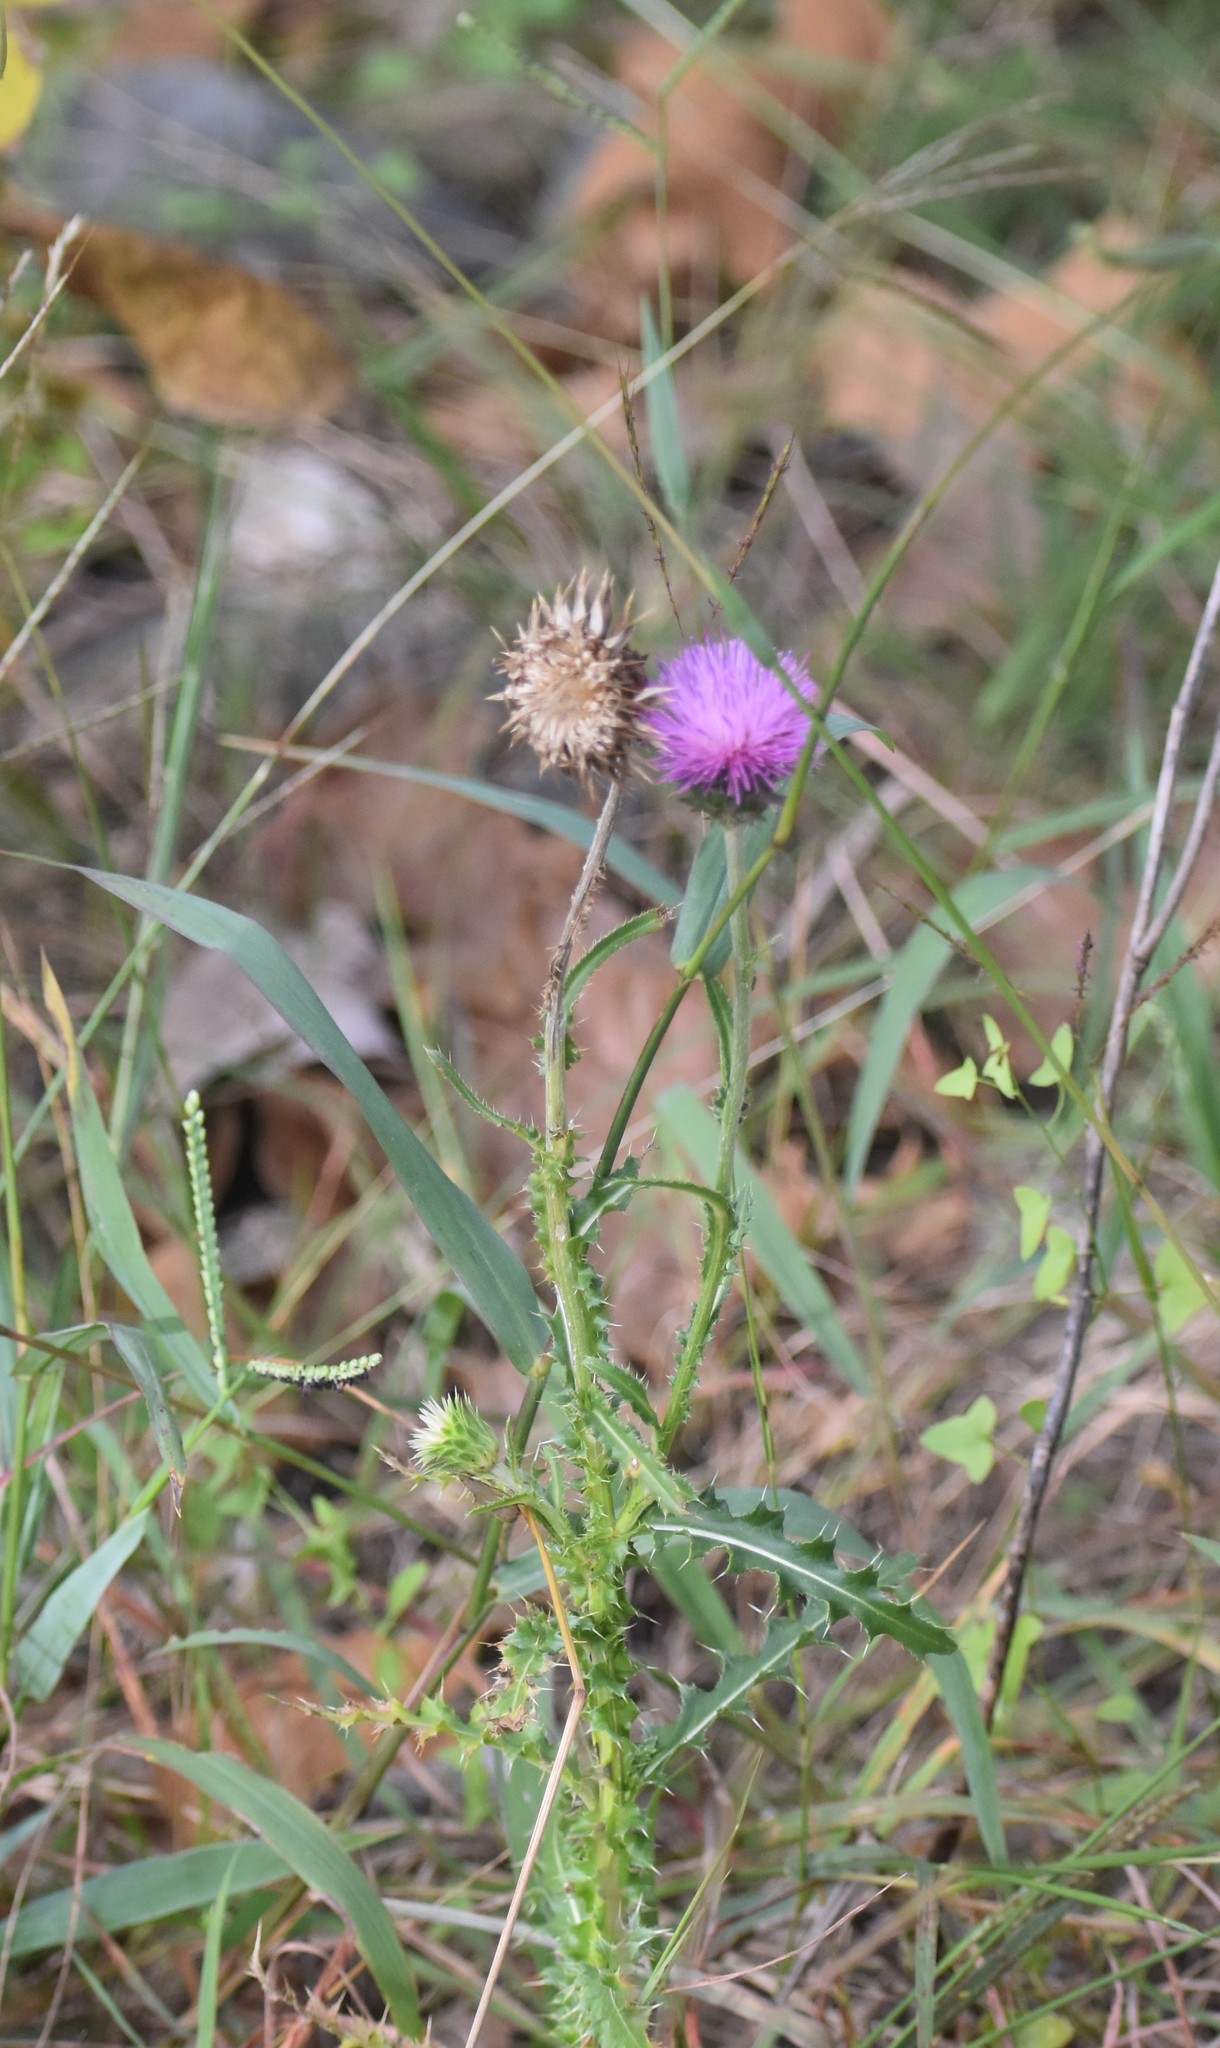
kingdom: Plantae
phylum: Tracheophyta
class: Magnoliopsida
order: Asterales
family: Asteraceae
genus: Carduus
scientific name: Carduus nutans
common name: Musk thistle
